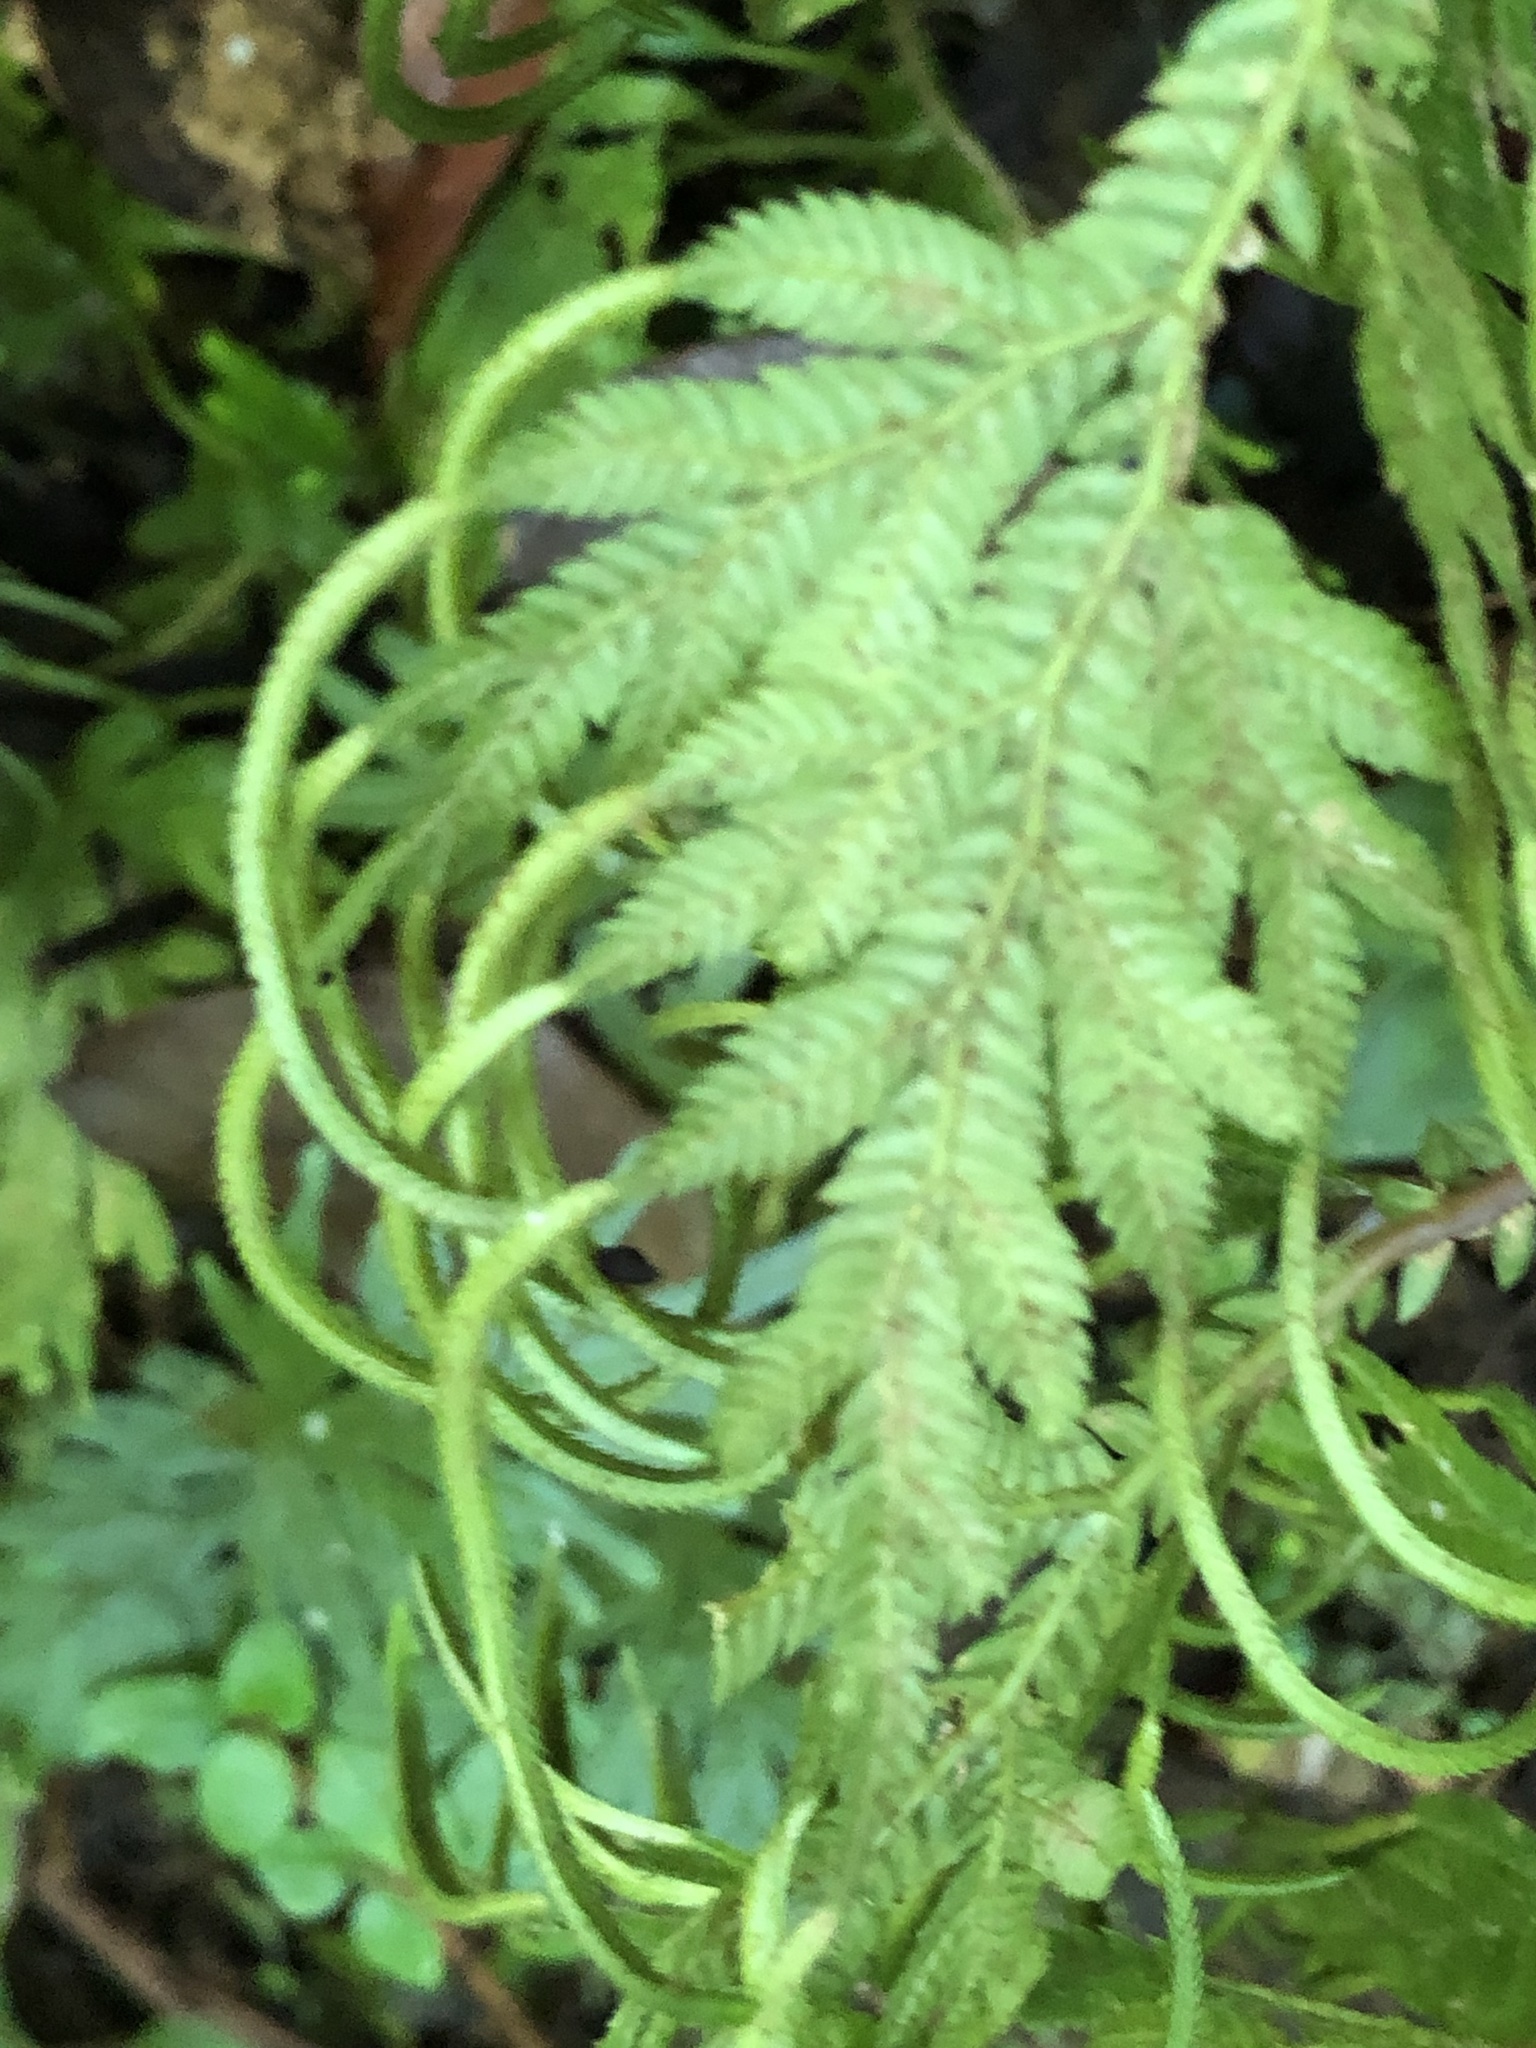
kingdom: Plantae
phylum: Tracheophyta
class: Lycopodiopsida
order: Selaginellales
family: Selaginellaceae
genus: Selaginella
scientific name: Selaginella plana
